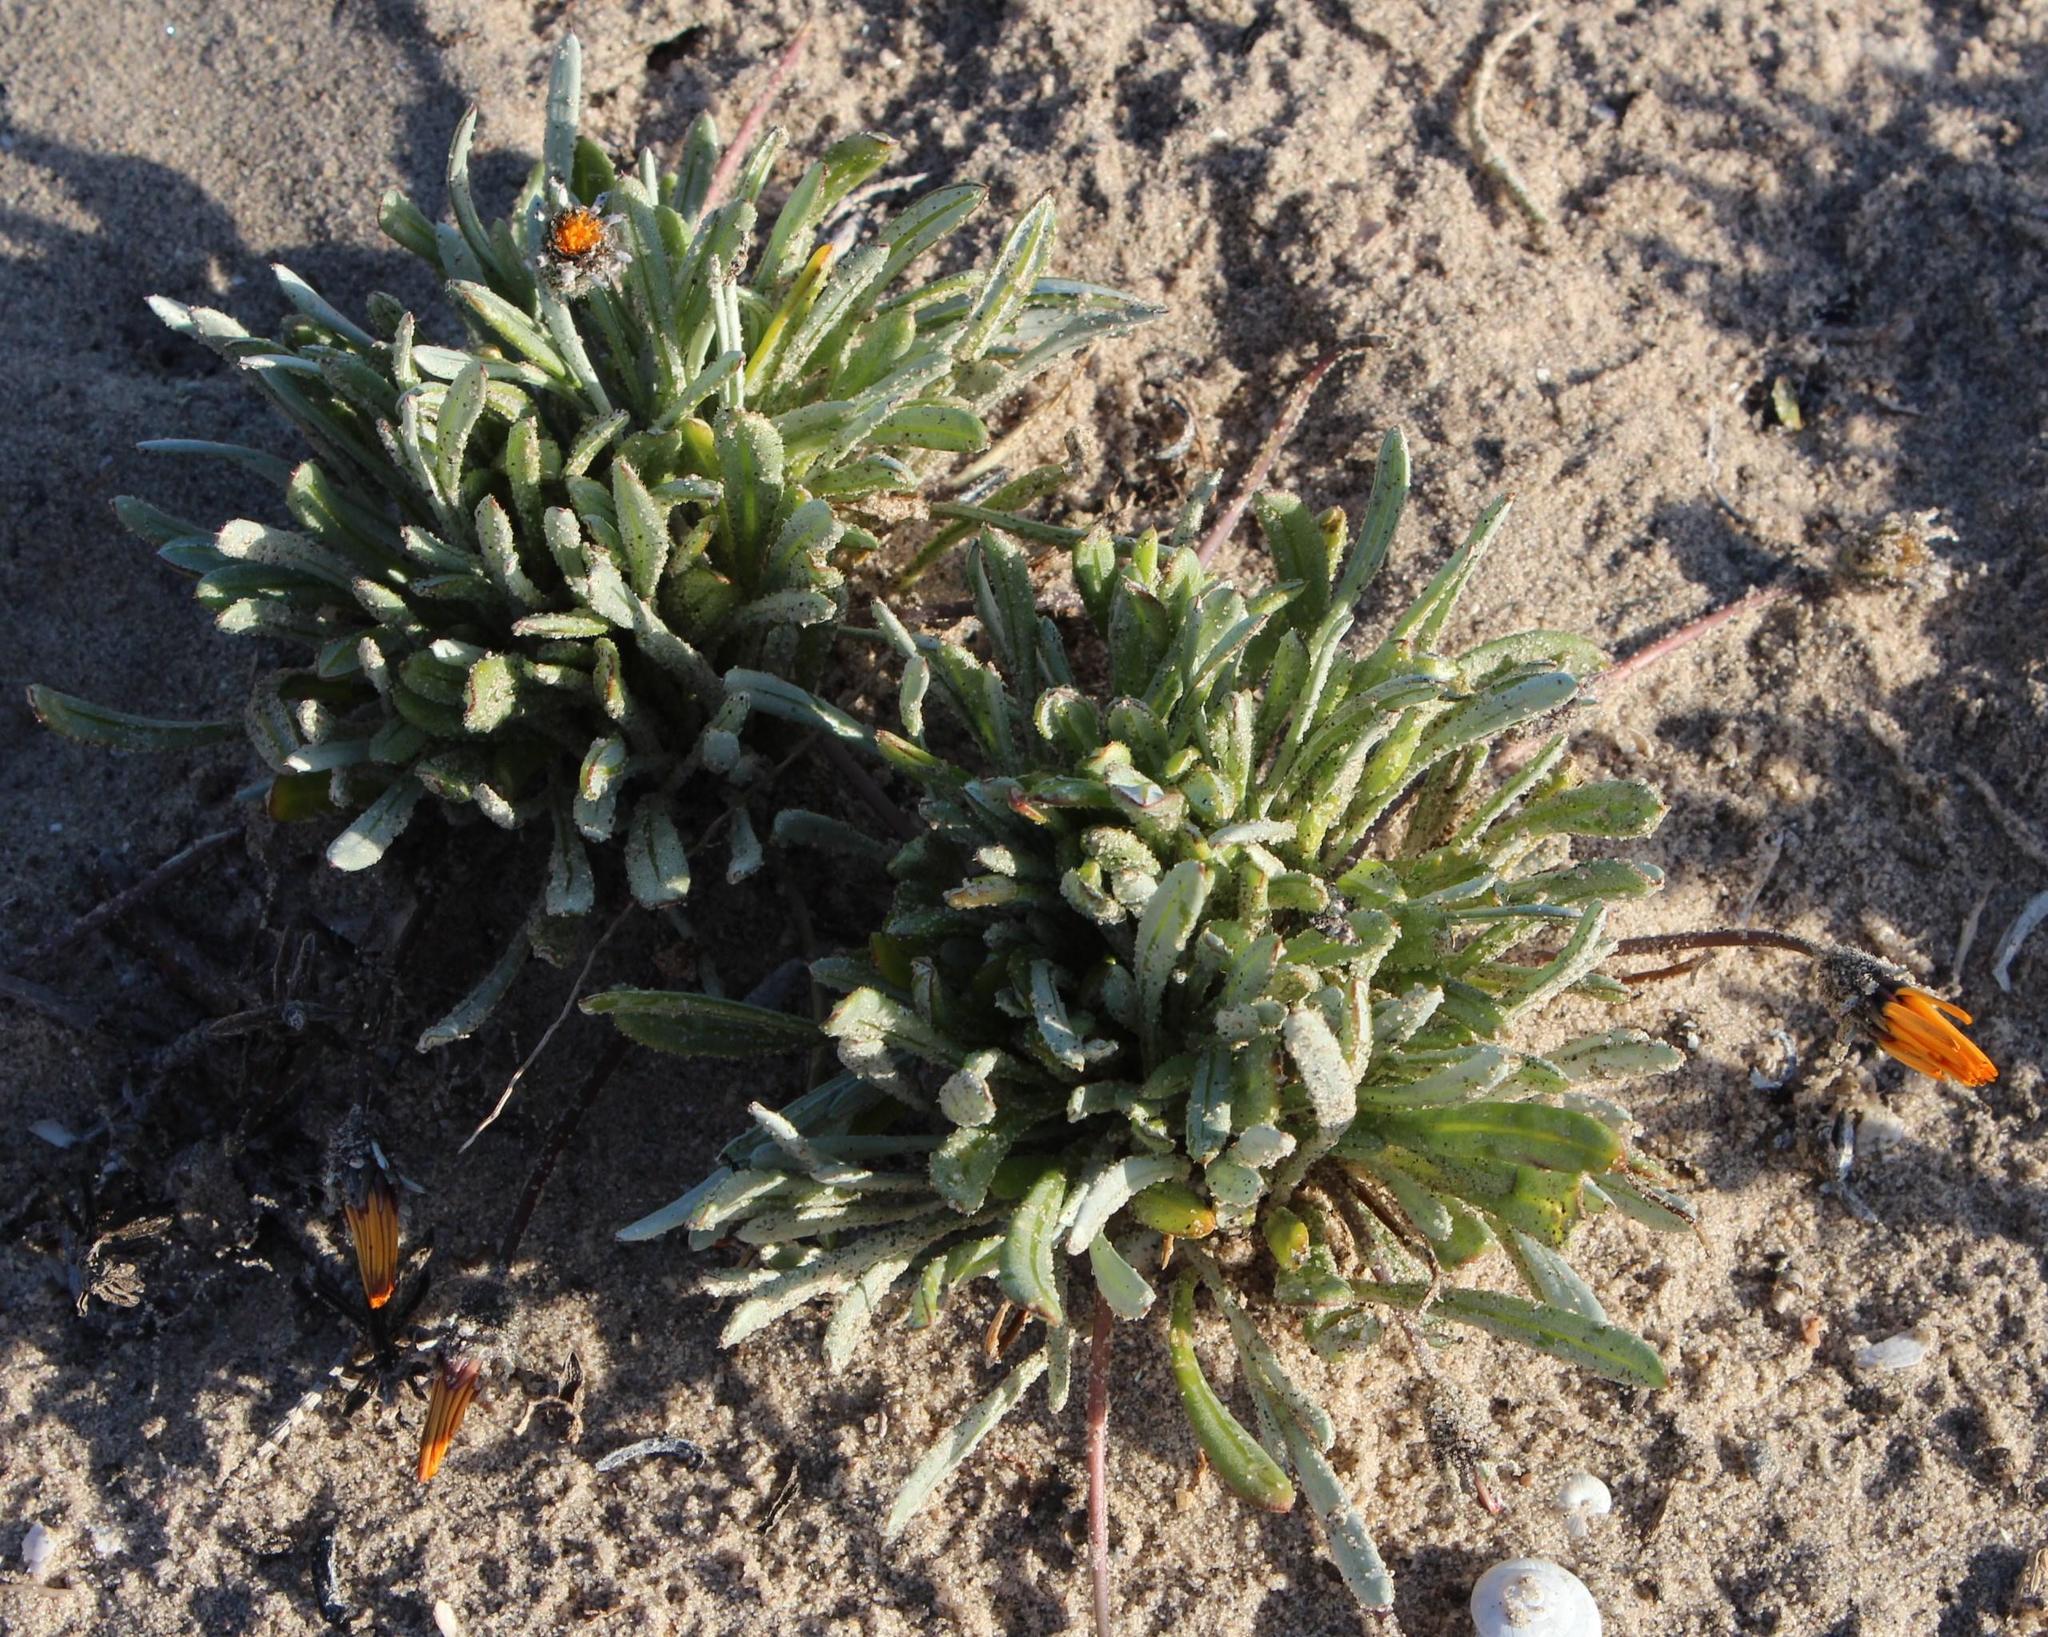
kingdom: Plantae
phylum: Tracheophyta
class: Magnoliopsida
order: Asterales
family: Asteraceae
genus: Gazania
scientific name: Gazania splendidissima
